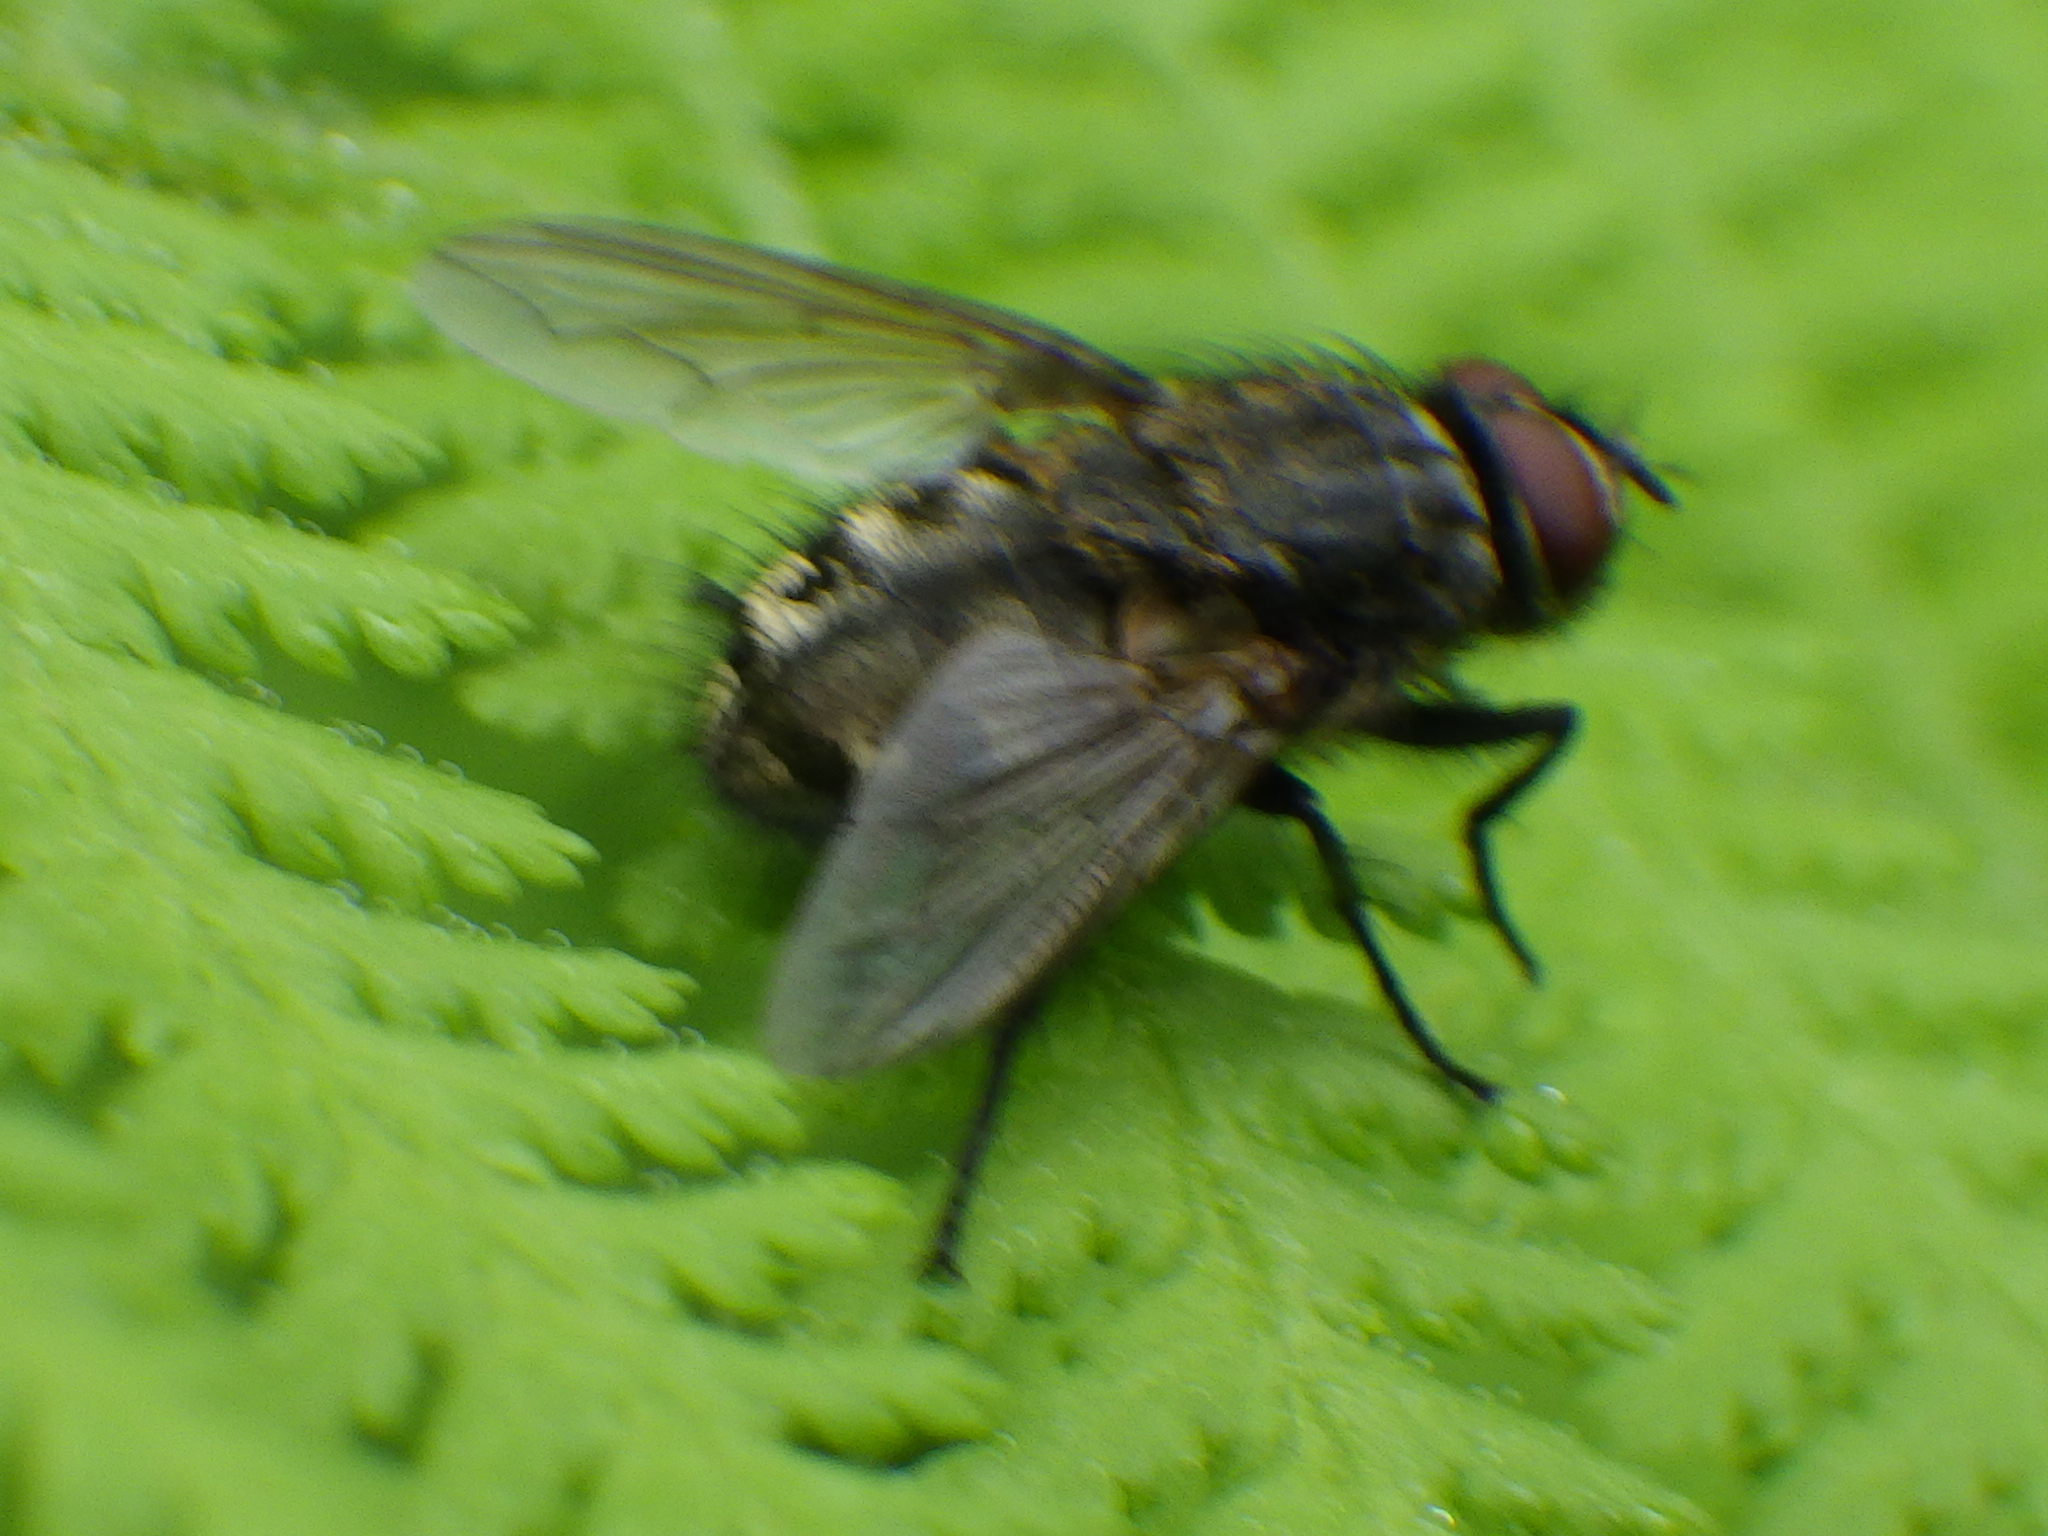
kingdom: Animalia
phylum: Arthropoda
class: Insecta
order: Diptera
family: Polleniidae
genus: Pollenia
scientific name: Pollenia
